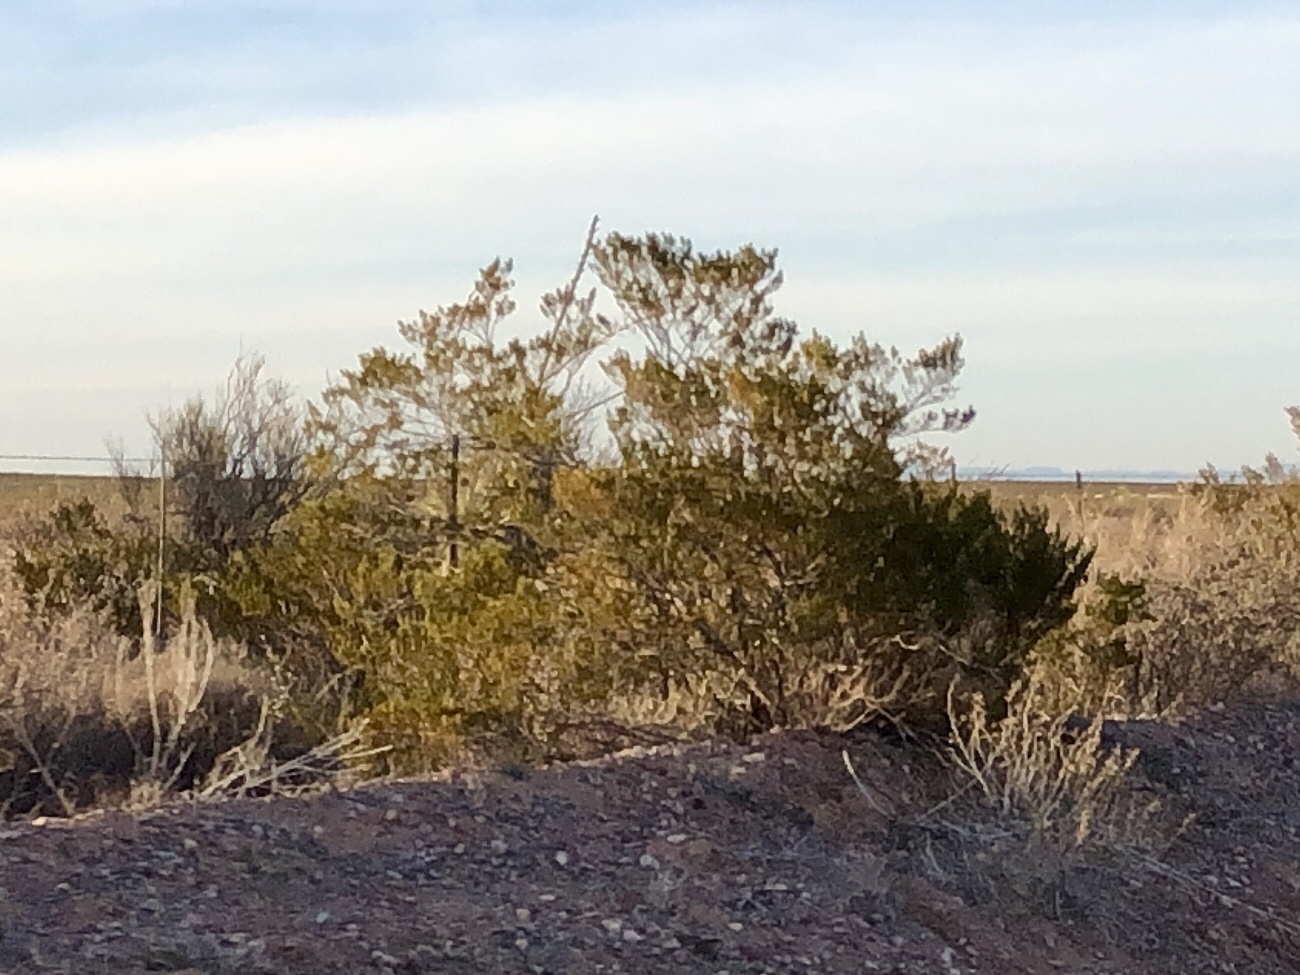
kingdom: Plantae
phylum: Tracheophyta
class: Magnoliopsida
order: Zygophyllales
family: Zygophyllaceae
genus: Larrea
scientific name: Larrea tridentata
